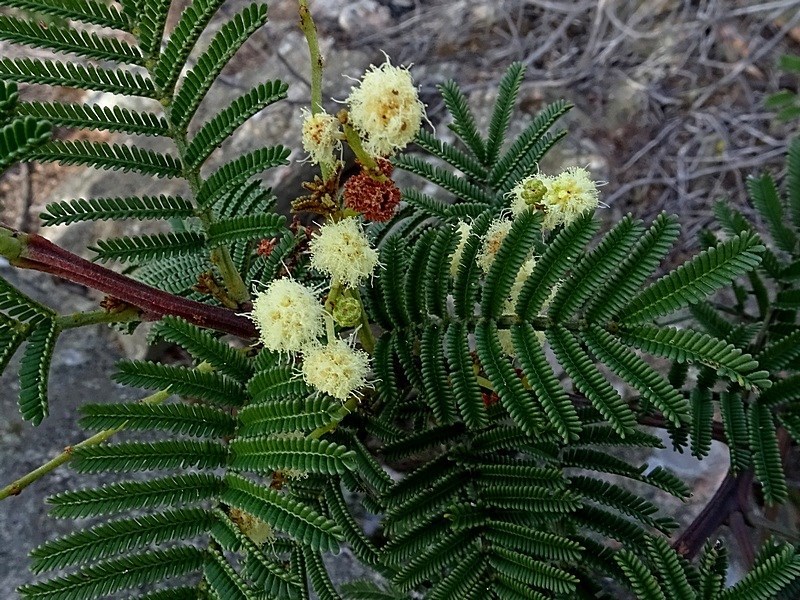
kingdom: Plantae
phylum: Tracheophyta
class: Magnoliopsida
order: Fabales
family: Fabaceae
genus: Acacia
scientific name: Acacia constablei
